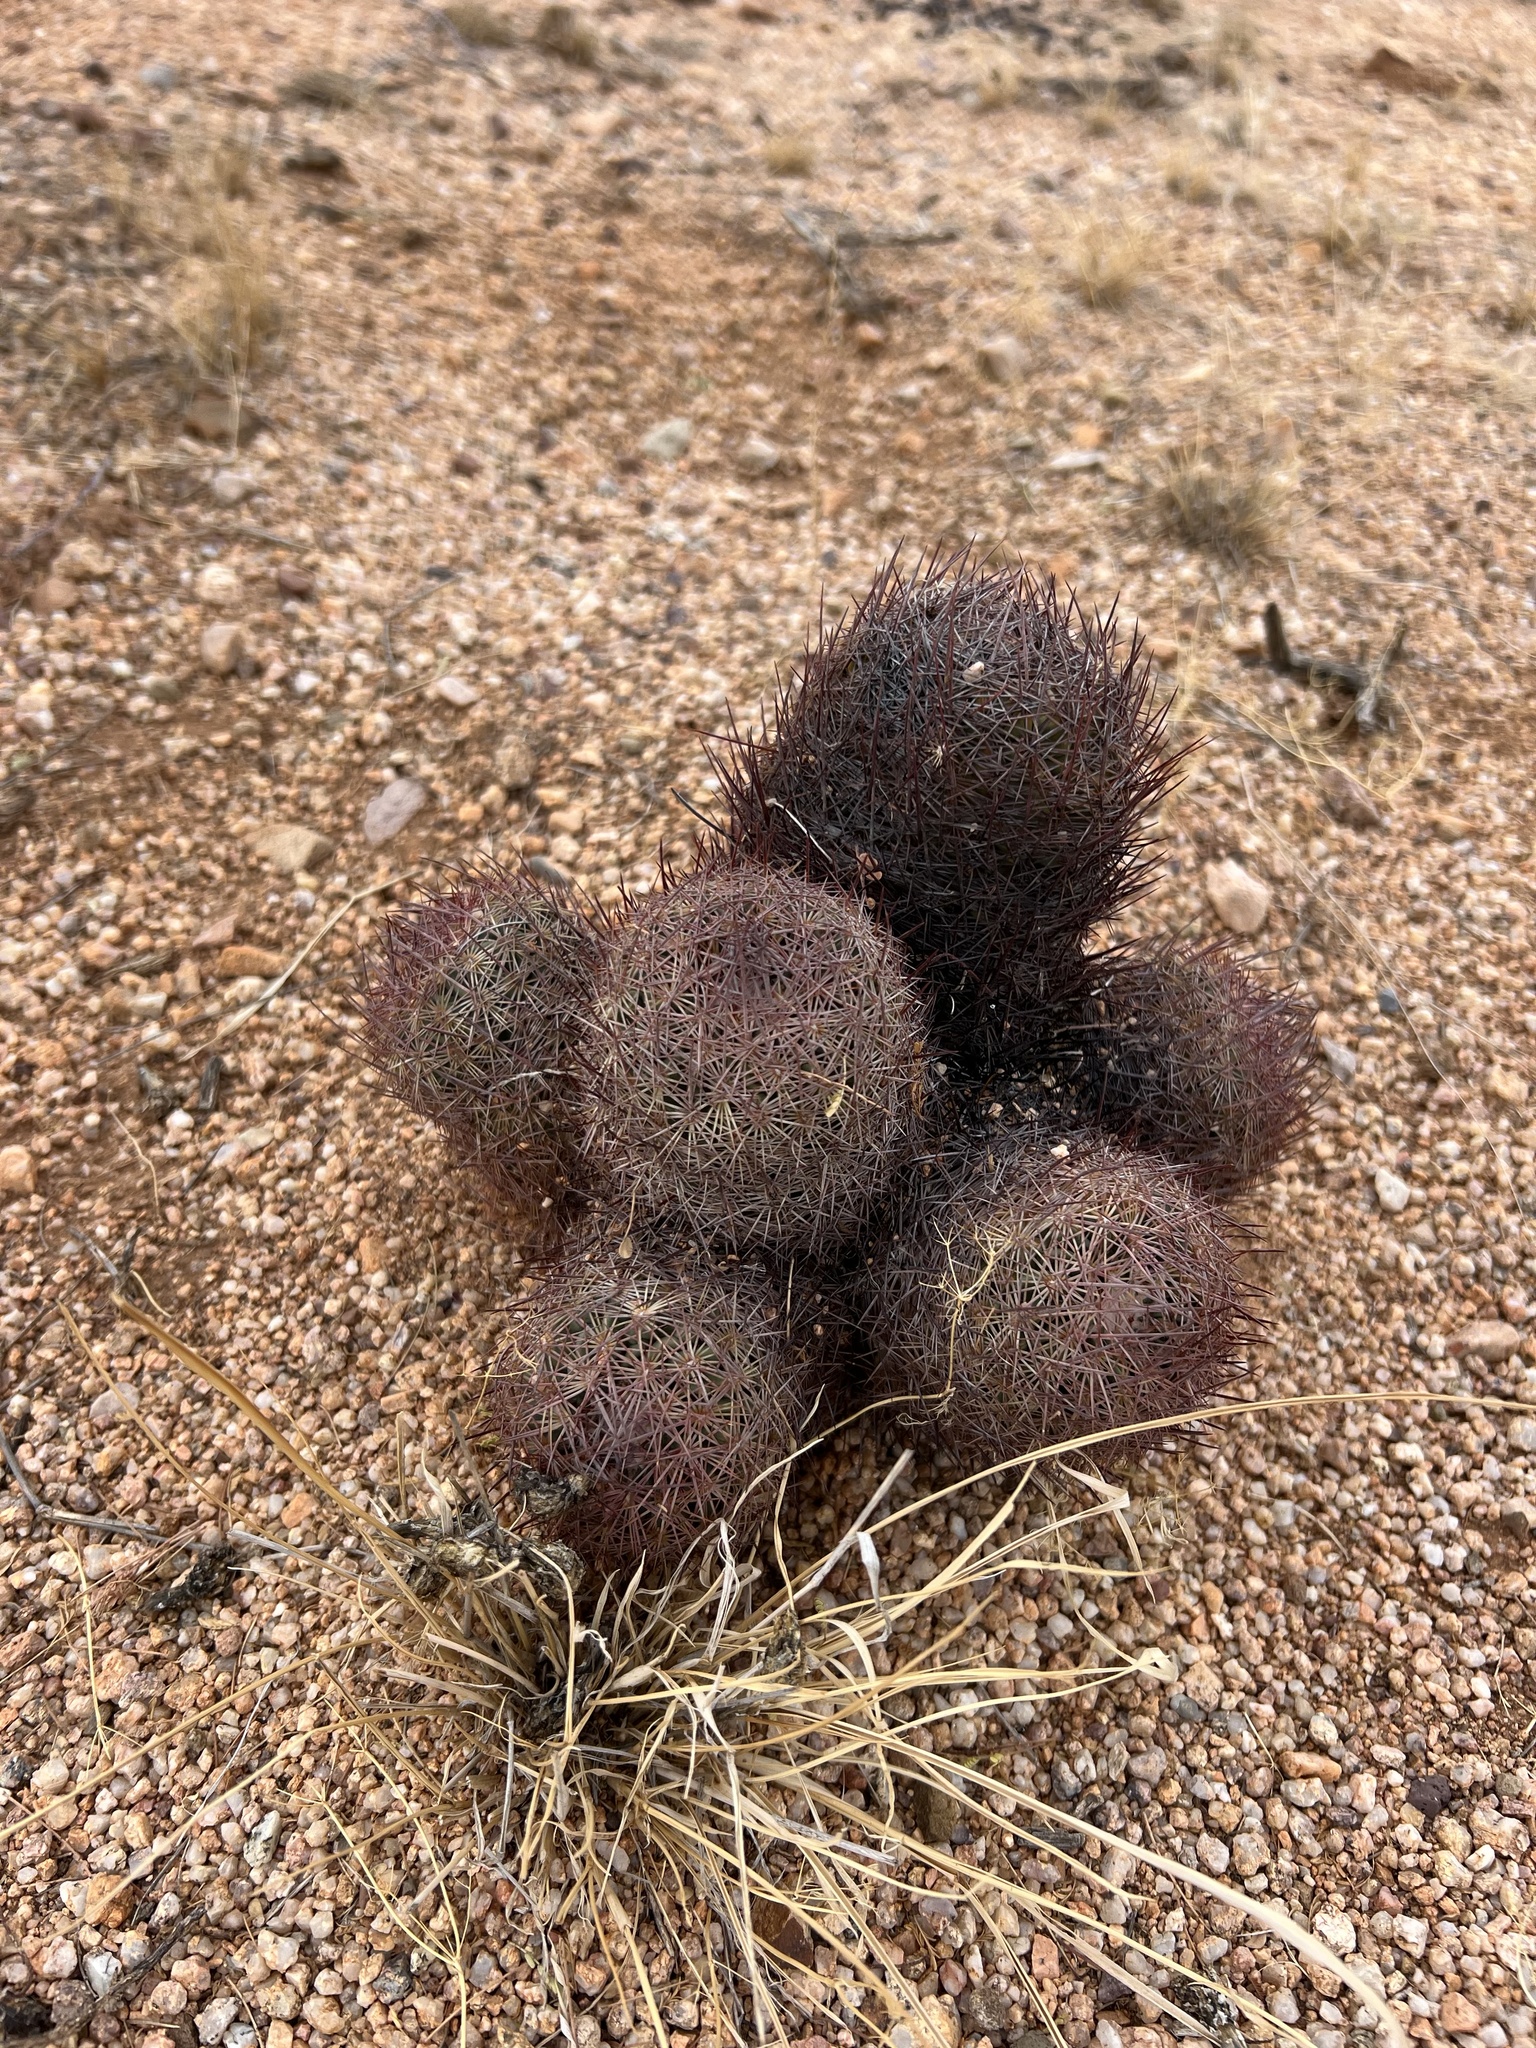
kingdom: Plantae
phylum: Tracheophyta
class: Magnoliopsida
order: Caryophyllales
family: Cactaceae
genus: Sclerocactus
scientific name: Sclerocactus johnsonii
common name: Eight-spine fishhook cactus
